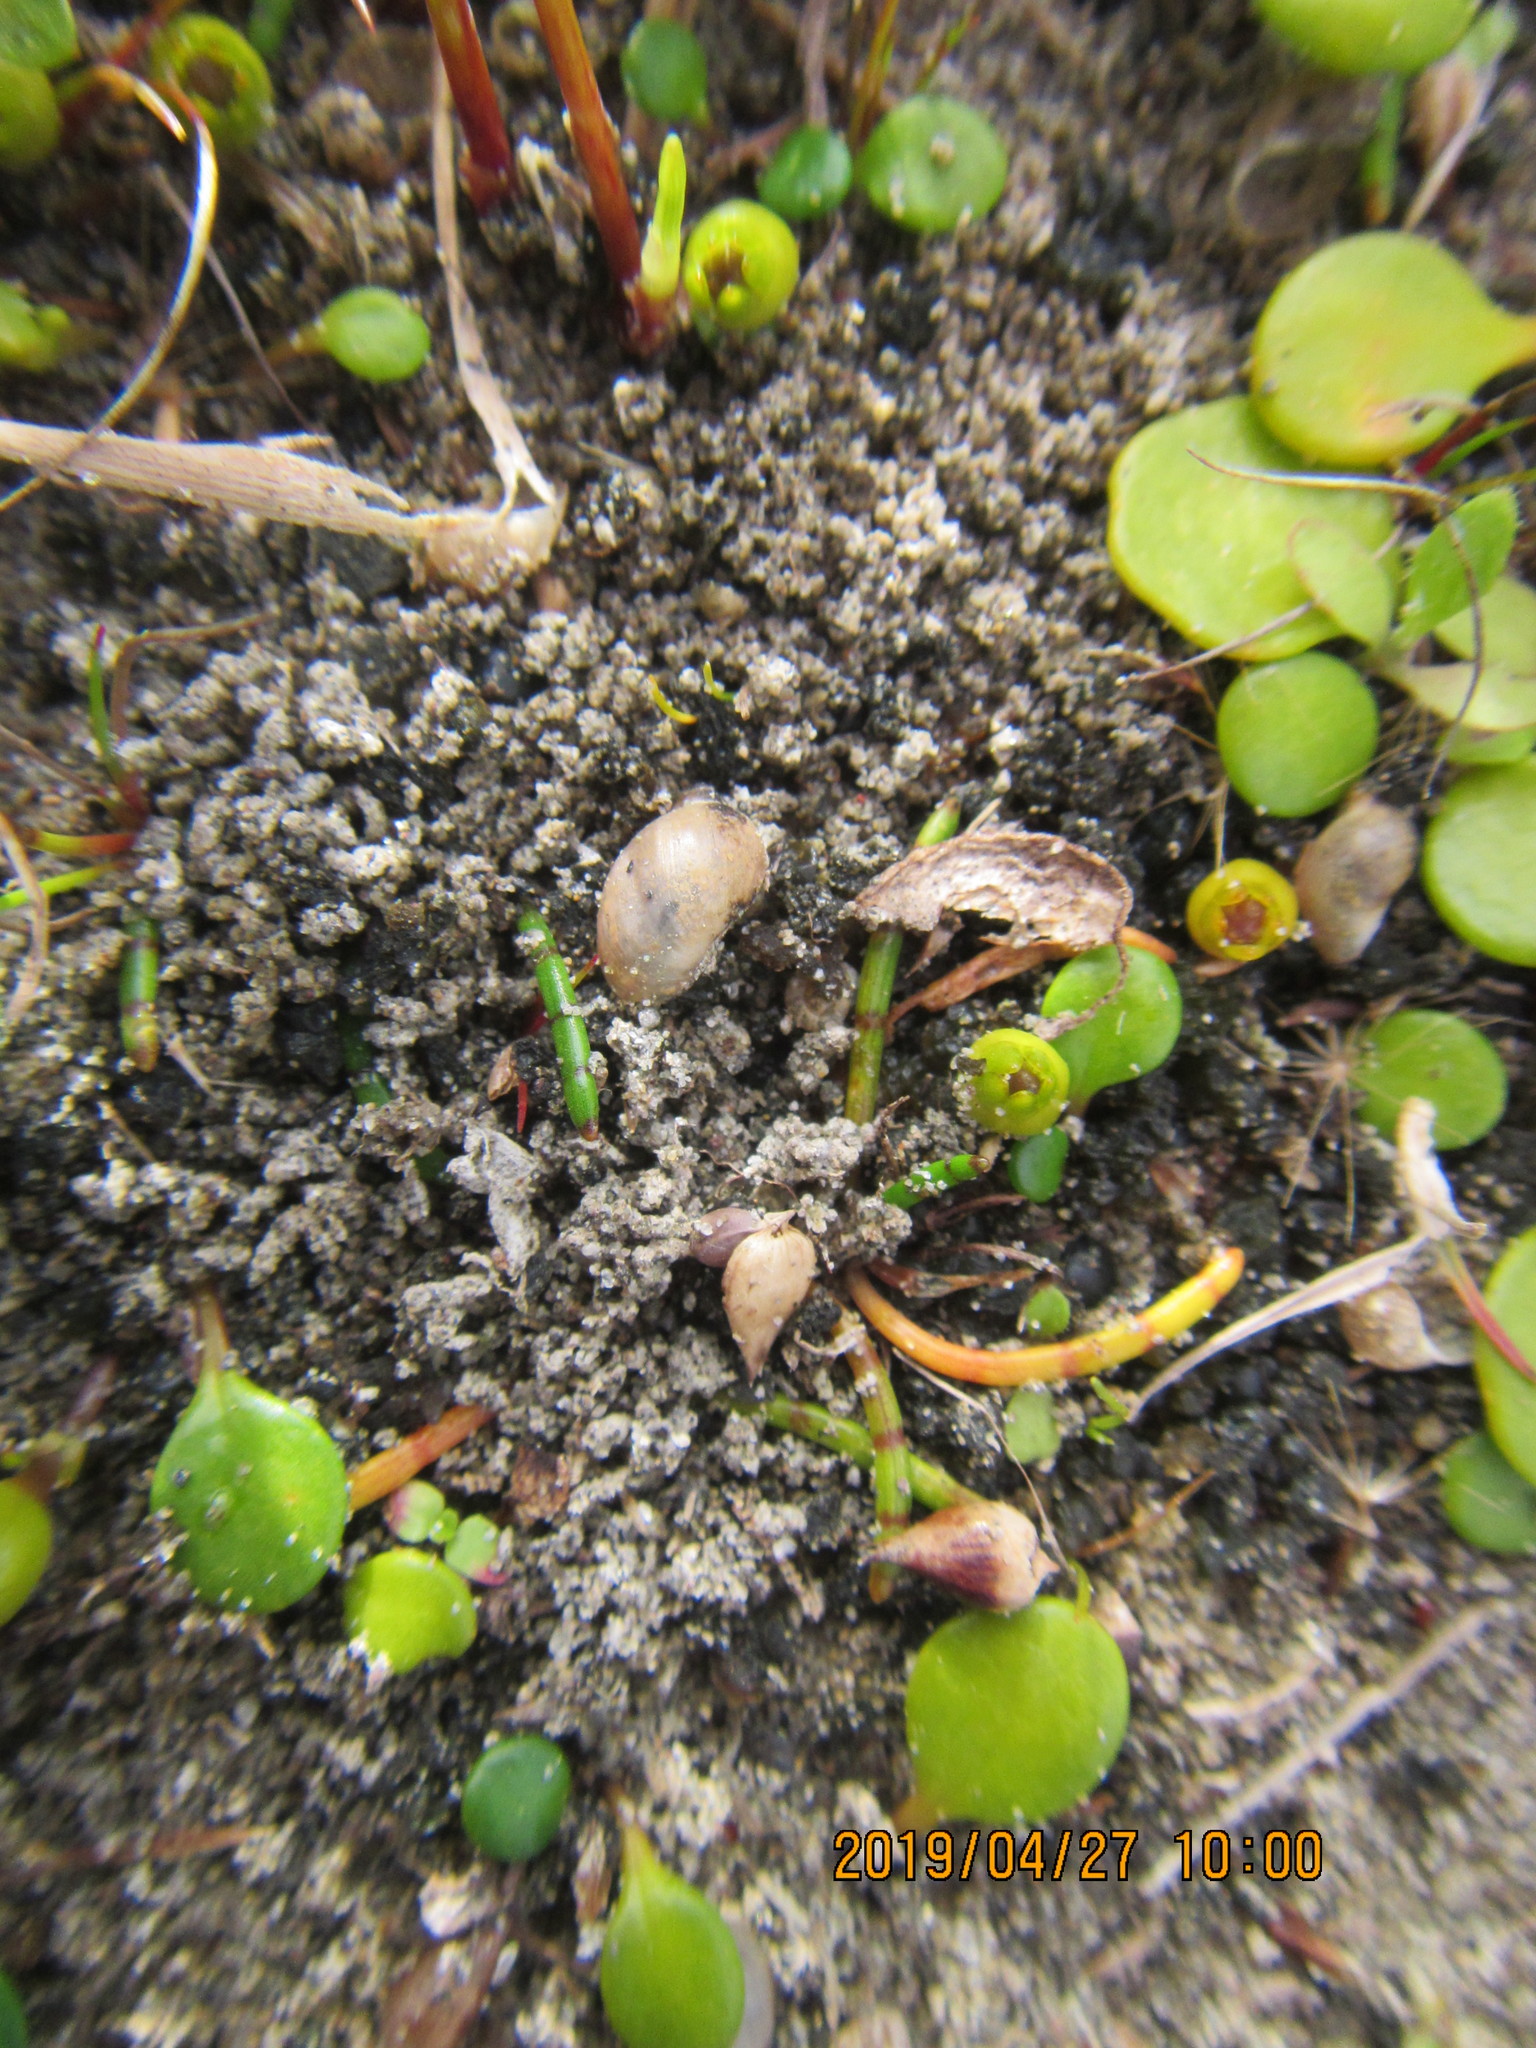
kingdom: Plantae
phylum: Tracheophyta
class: Magnoliopsida
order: Apiales
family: Apiaceae
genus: Lilaeopsis
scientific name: Lilaeopsis novae-zelandiae
